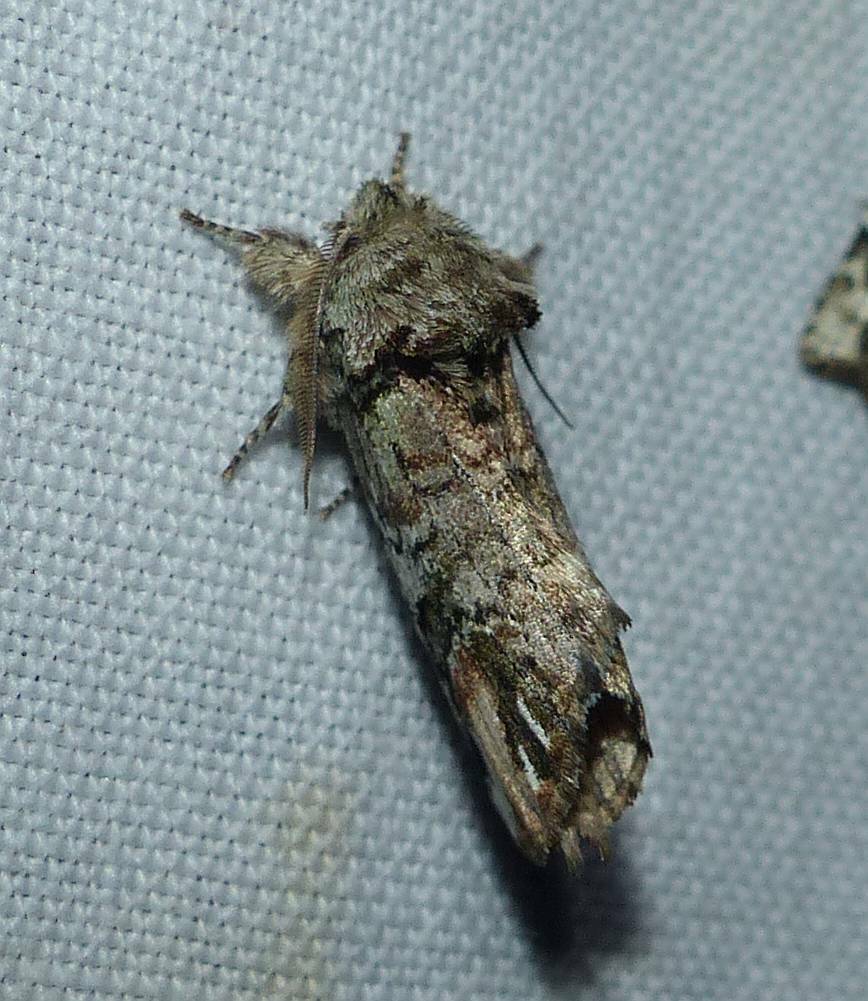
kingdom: Animalia
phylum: Arthropoda
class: Insecta
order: Lepidoptera
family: Notodontidae
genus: Schizura
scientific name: Schizura
